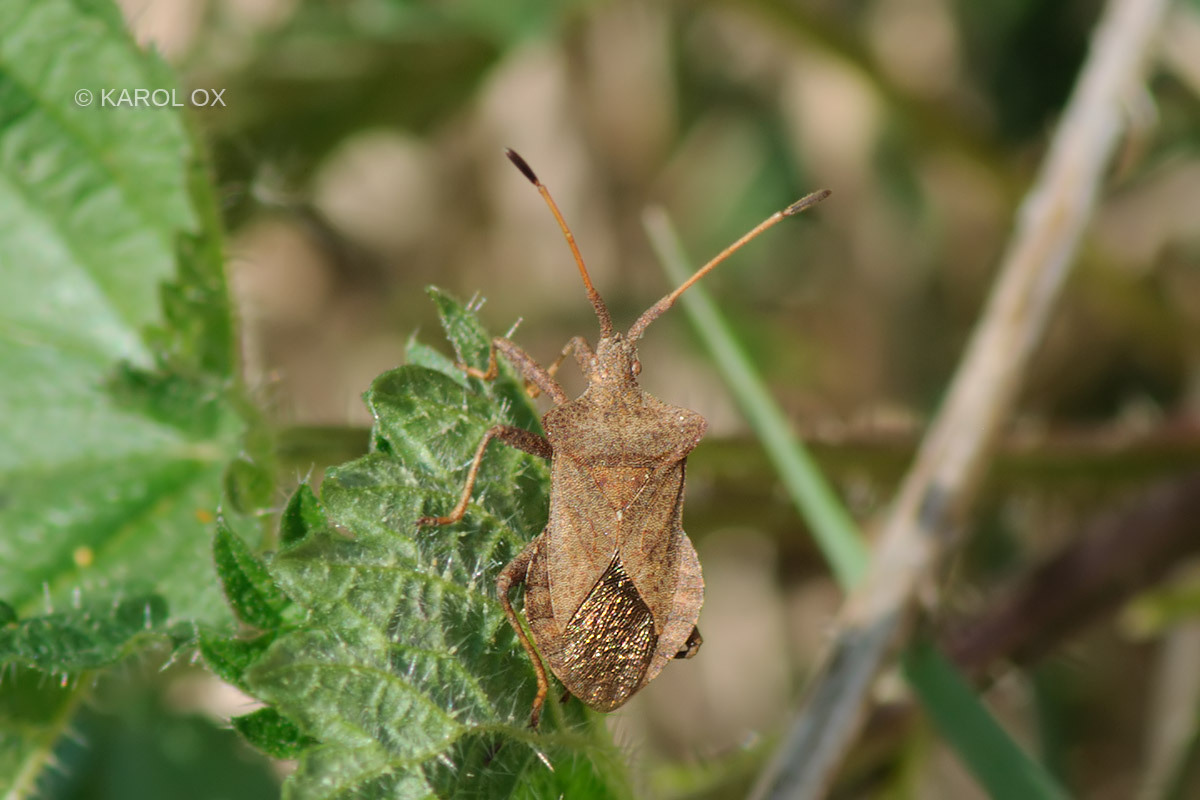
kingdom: Animalia
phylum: Arthropoda
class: Insecta
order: Hemiptera
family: Coreidae
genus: Coreus
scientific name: Coreus marginatus
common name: Dock bug
